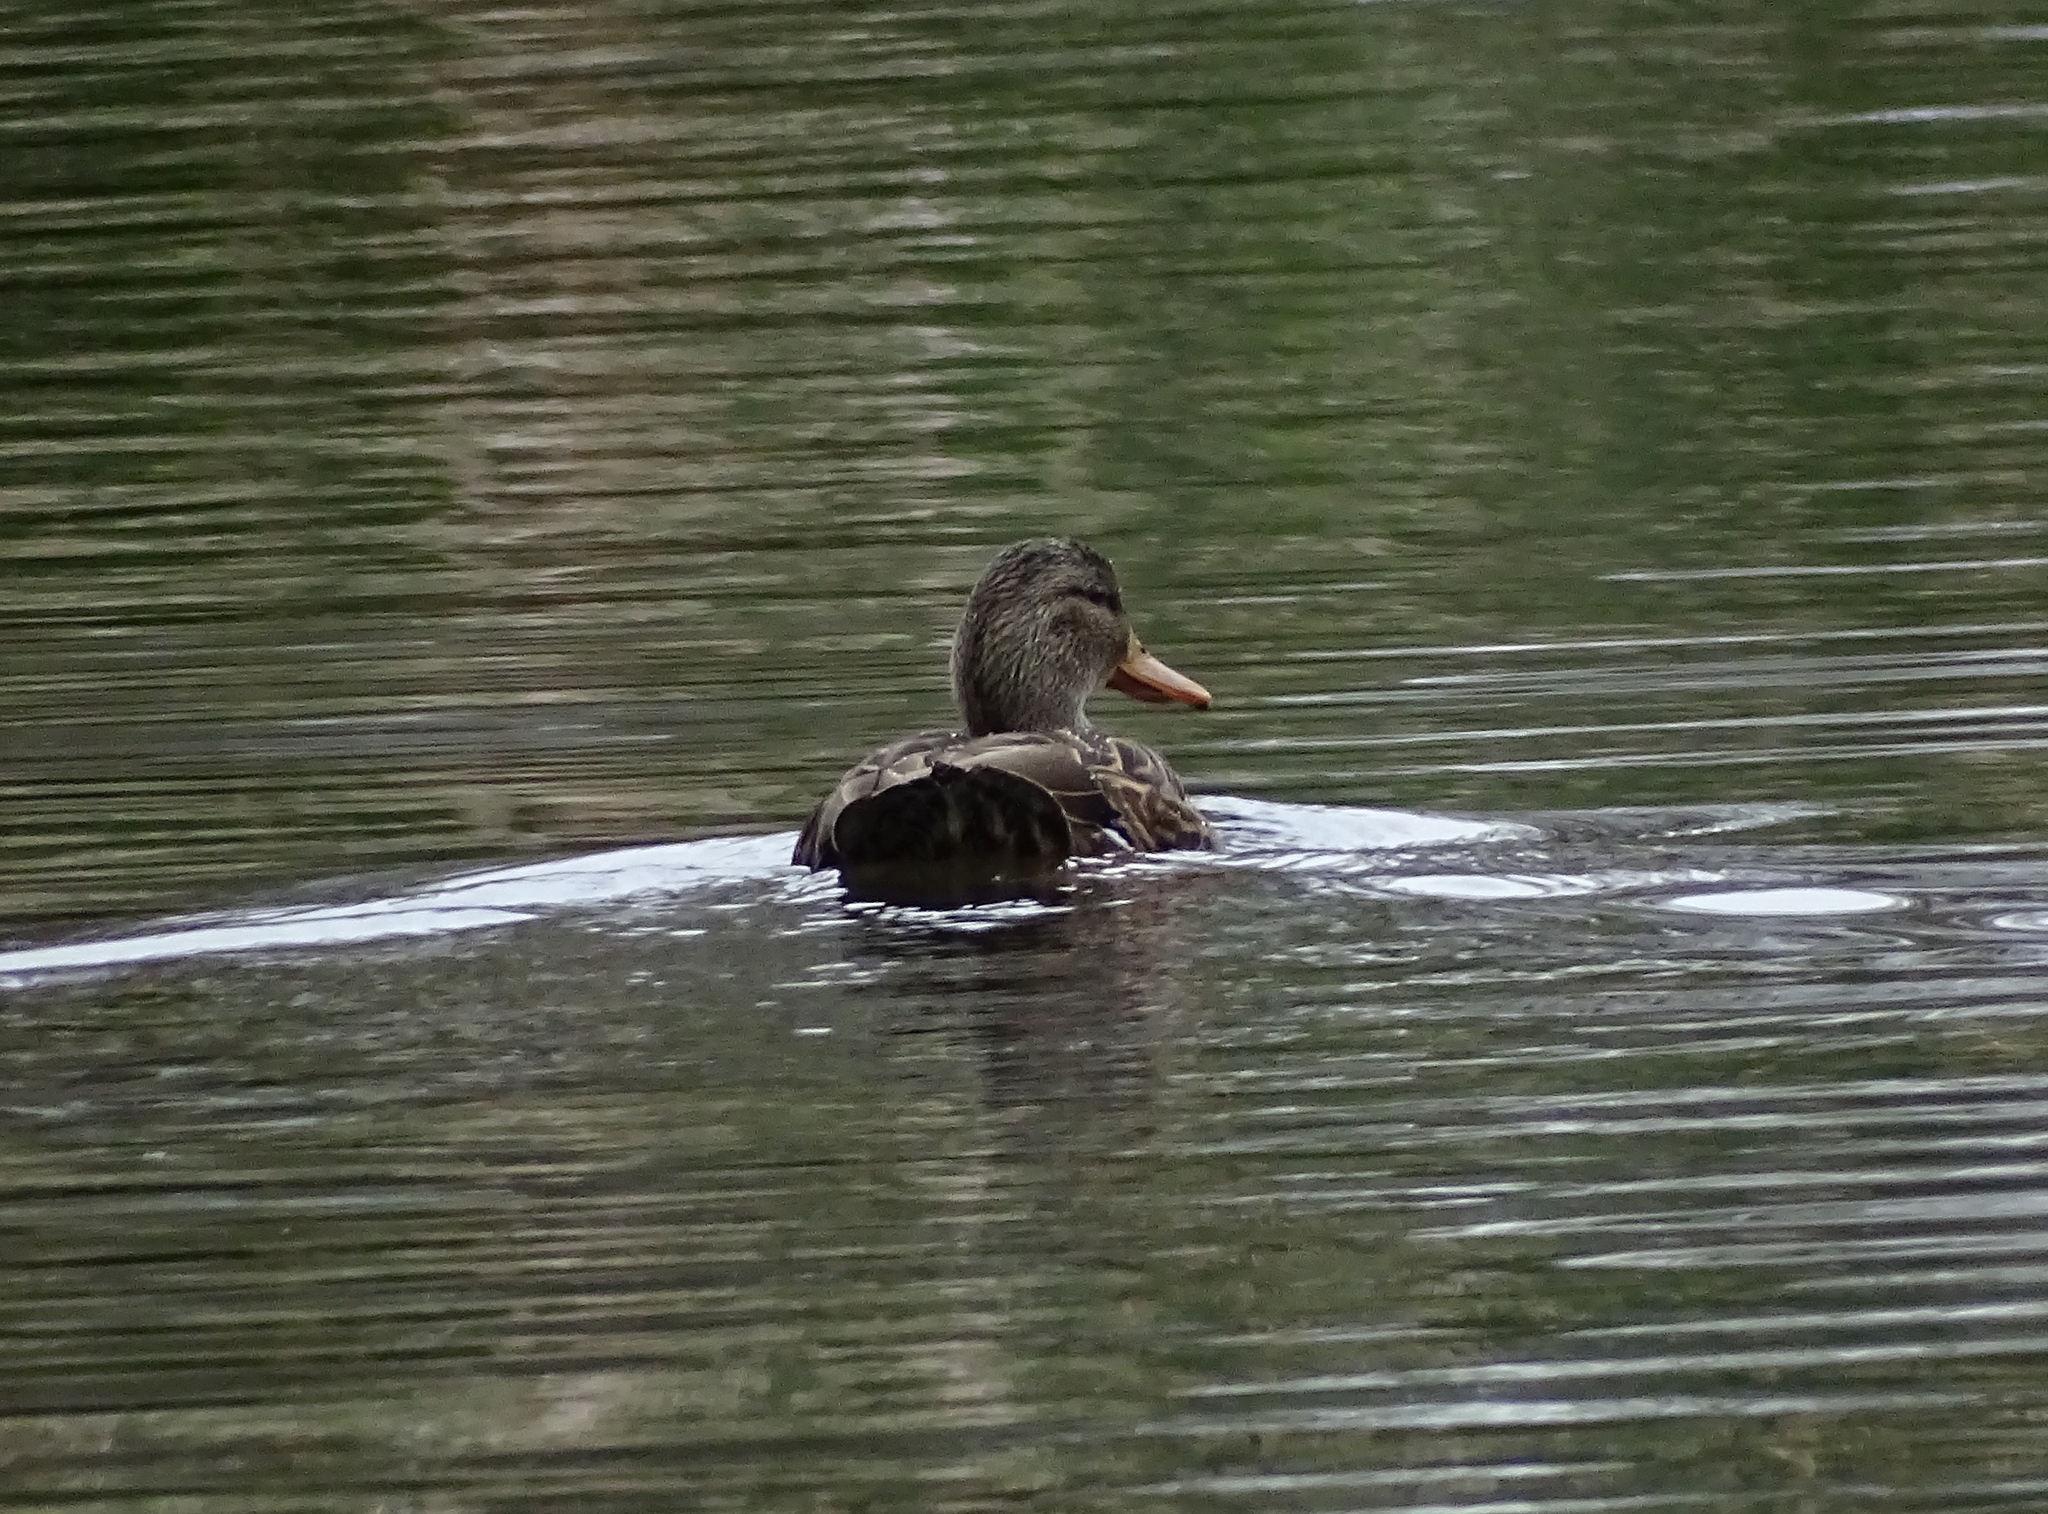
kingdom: Animalia
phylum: Chordata
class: Aves
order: Anseriformes
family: Anatidae
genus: Anas
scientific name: Anas diazi
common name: Mexican duck
